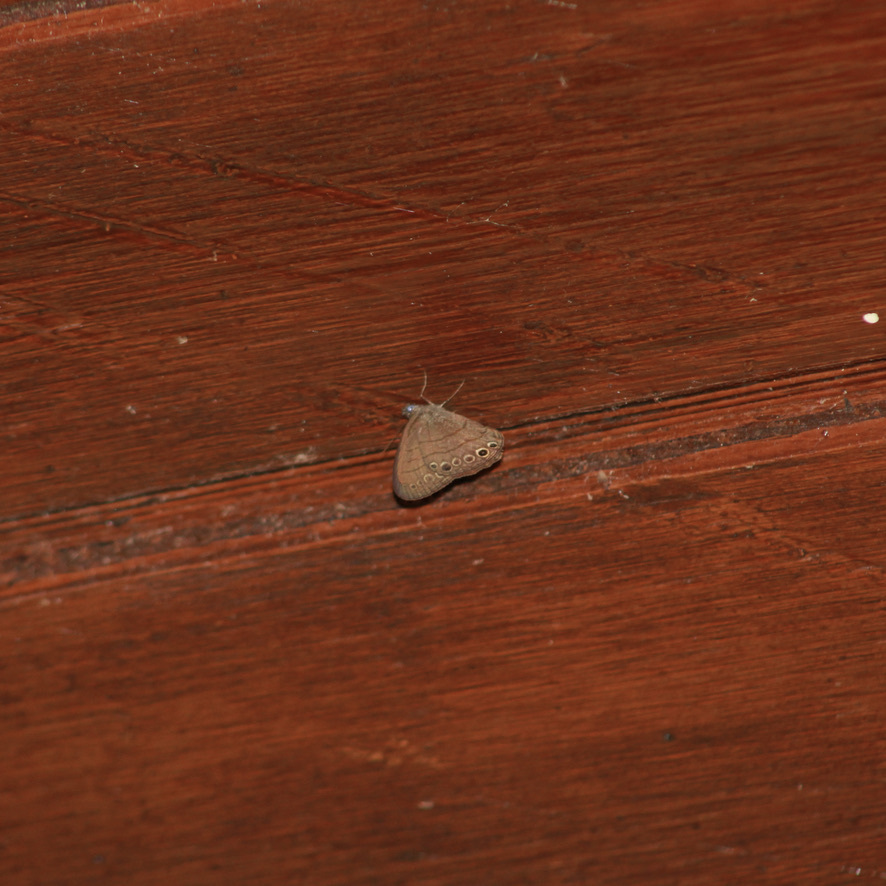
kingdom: Animalia
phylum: Arthropoda
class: Insecta
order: Lepidoptera
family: Nymphalidae
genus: Hermeuptychia
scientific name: Hermeuptychia canthe
